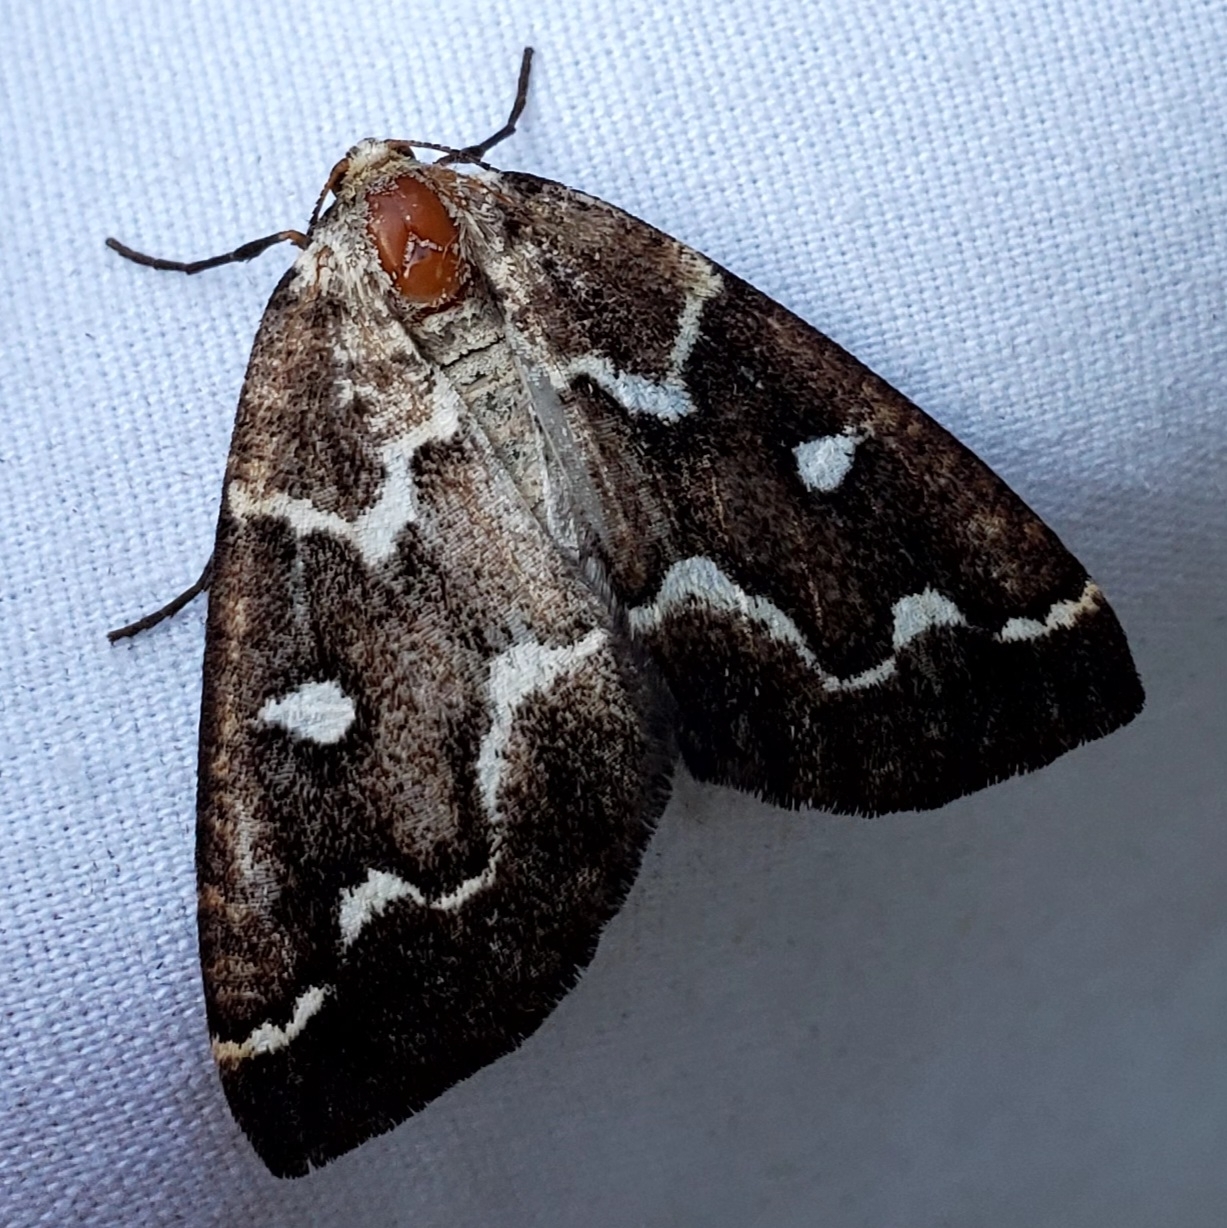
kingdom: Animalia
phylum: Arthropoda
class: Insecta
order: Lepidoptera
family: Geometridae
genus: Caripeta
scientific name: Caripeta divisata
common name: Gray spruce looper
